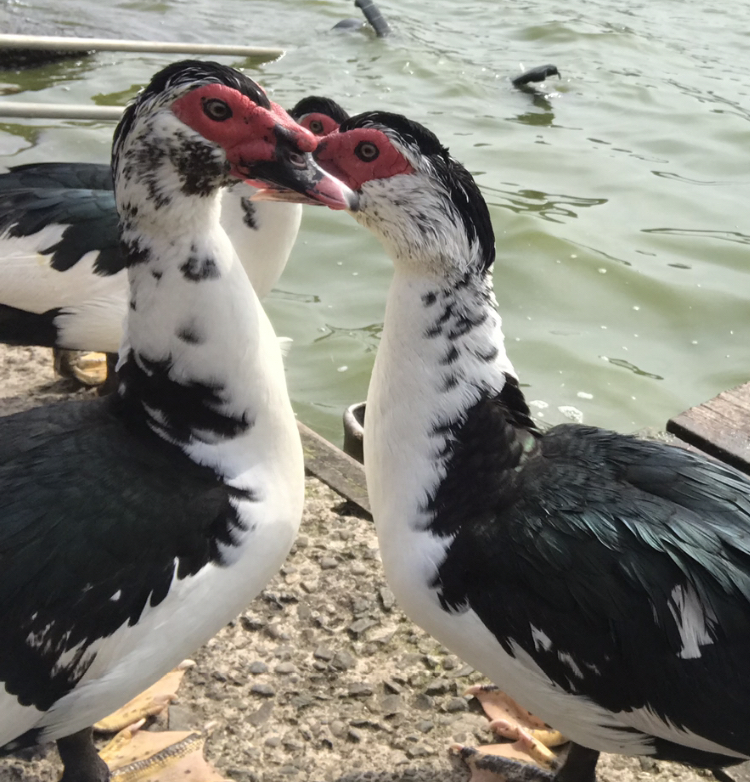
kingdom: Animalia
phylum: Chordata
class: Aves
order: Anseriformes
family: Anatidae
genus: Cairina
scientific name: Cairina moschata
